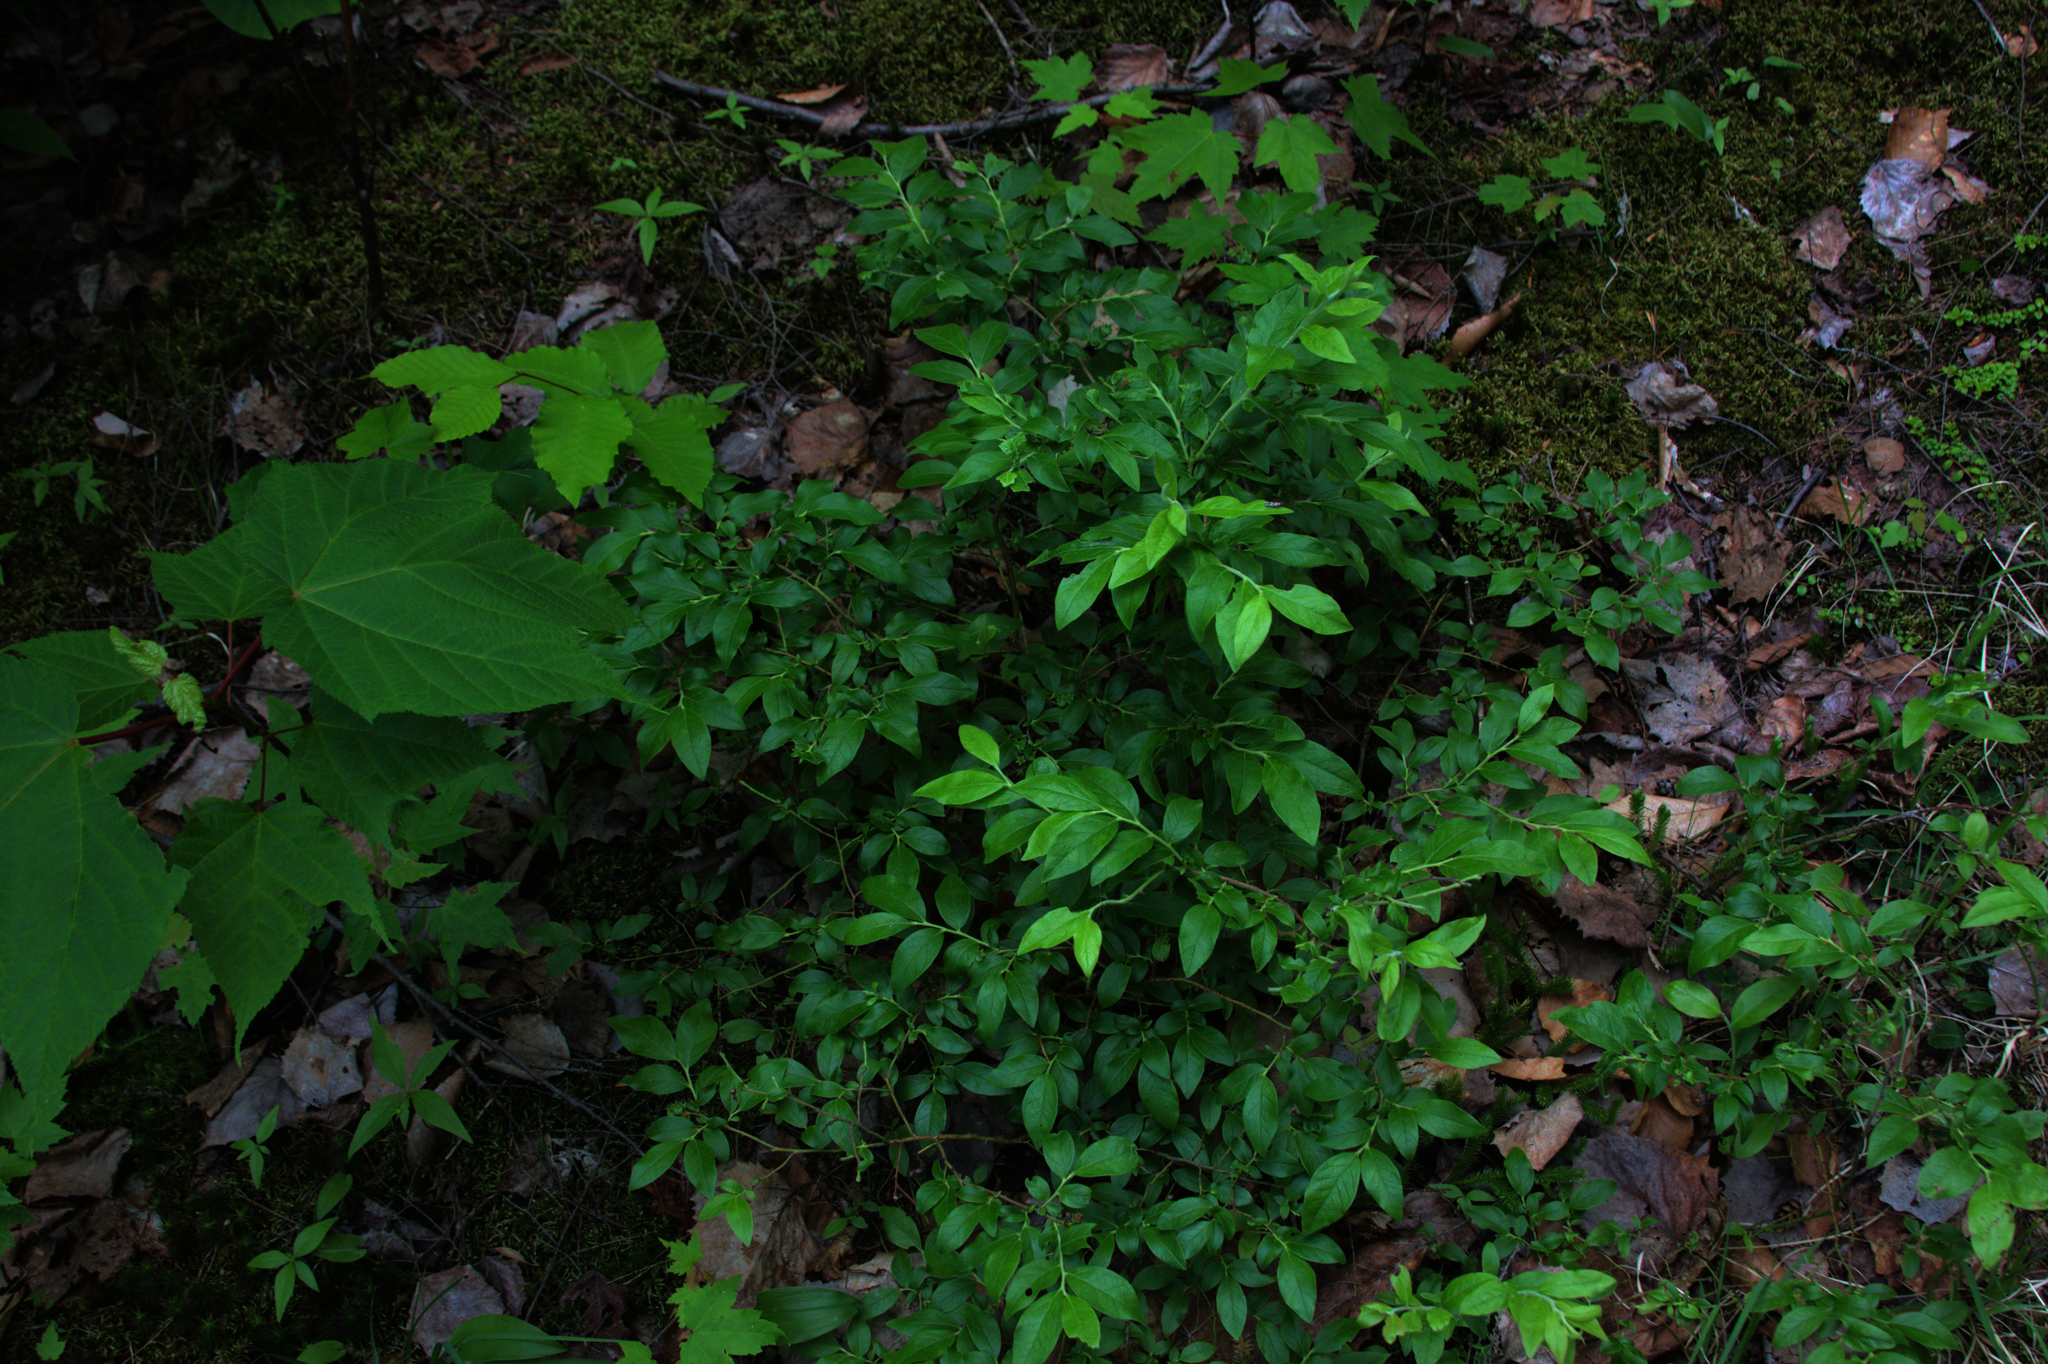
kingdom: Plantae
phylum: Tracheophyta
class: Magnoliopsida
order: Sapindales
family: Sapindaceae
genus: Acer
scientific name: Acer pensylvanicum
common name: Moosewood
